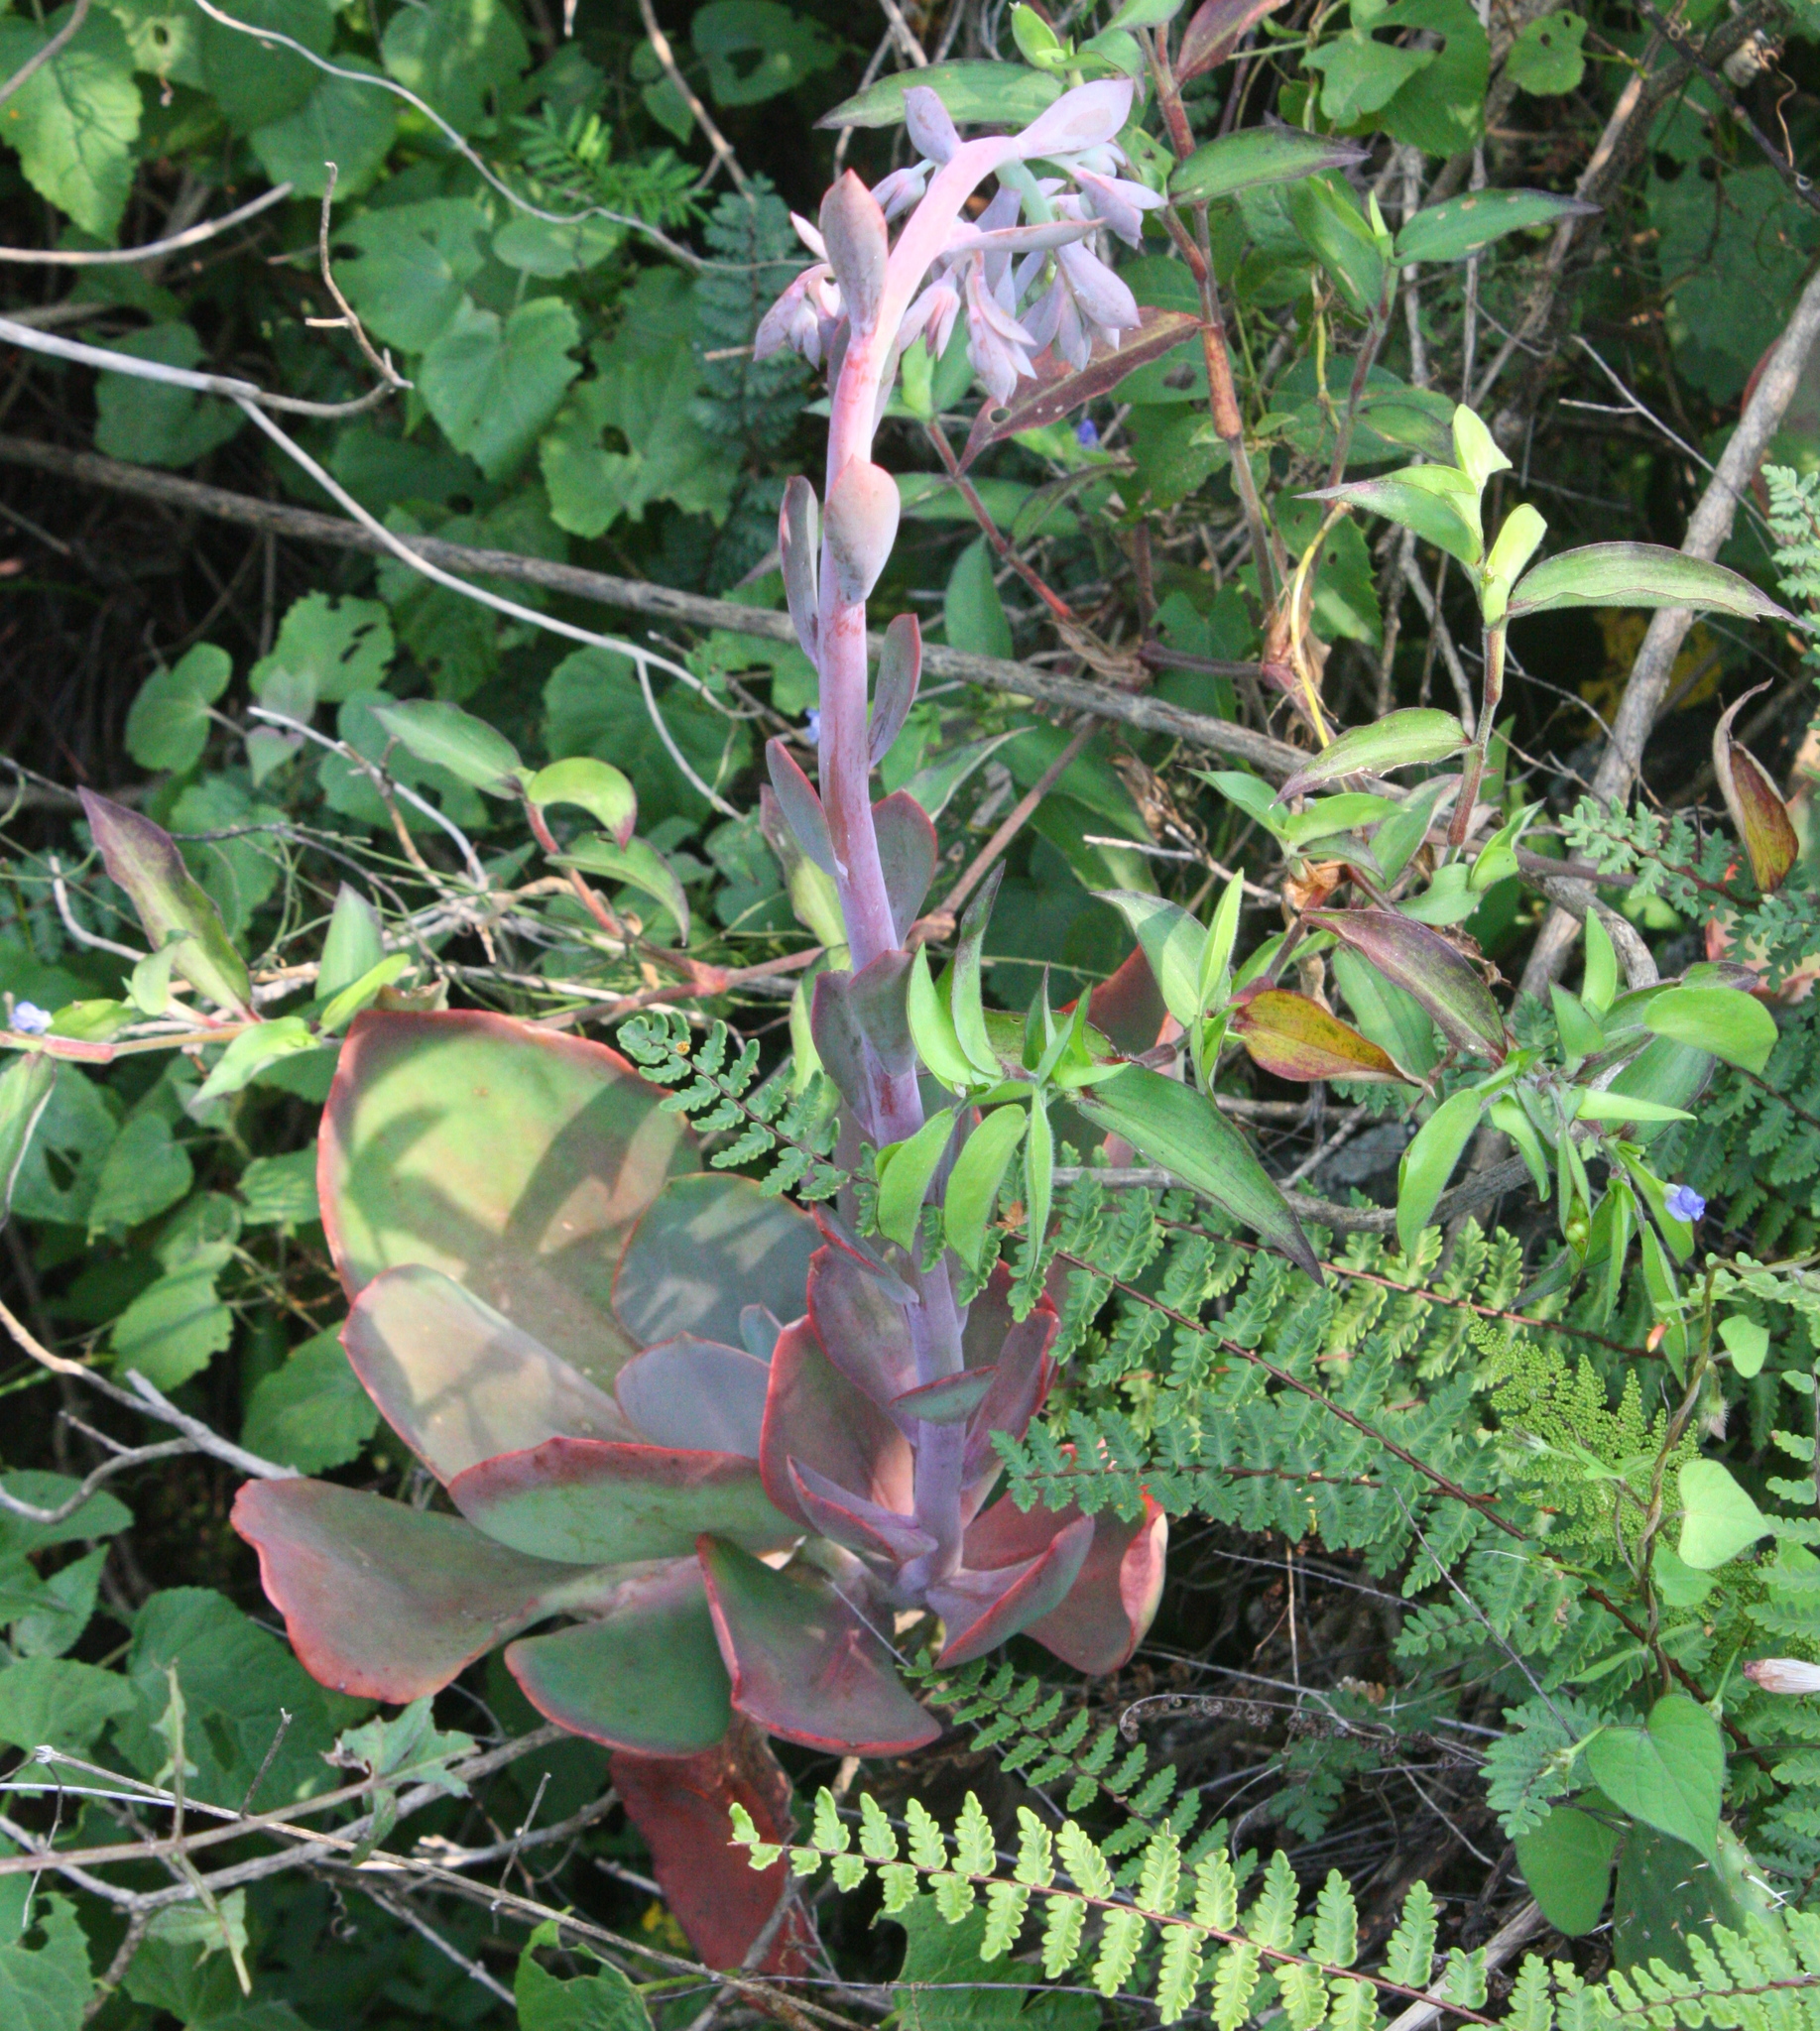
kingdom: Plantae
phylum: Tracheophyta
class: Magnoliopsida
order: Saxifragales
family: Crassulaceae
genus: Echeveria
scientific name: Echeveria gibbiflora
